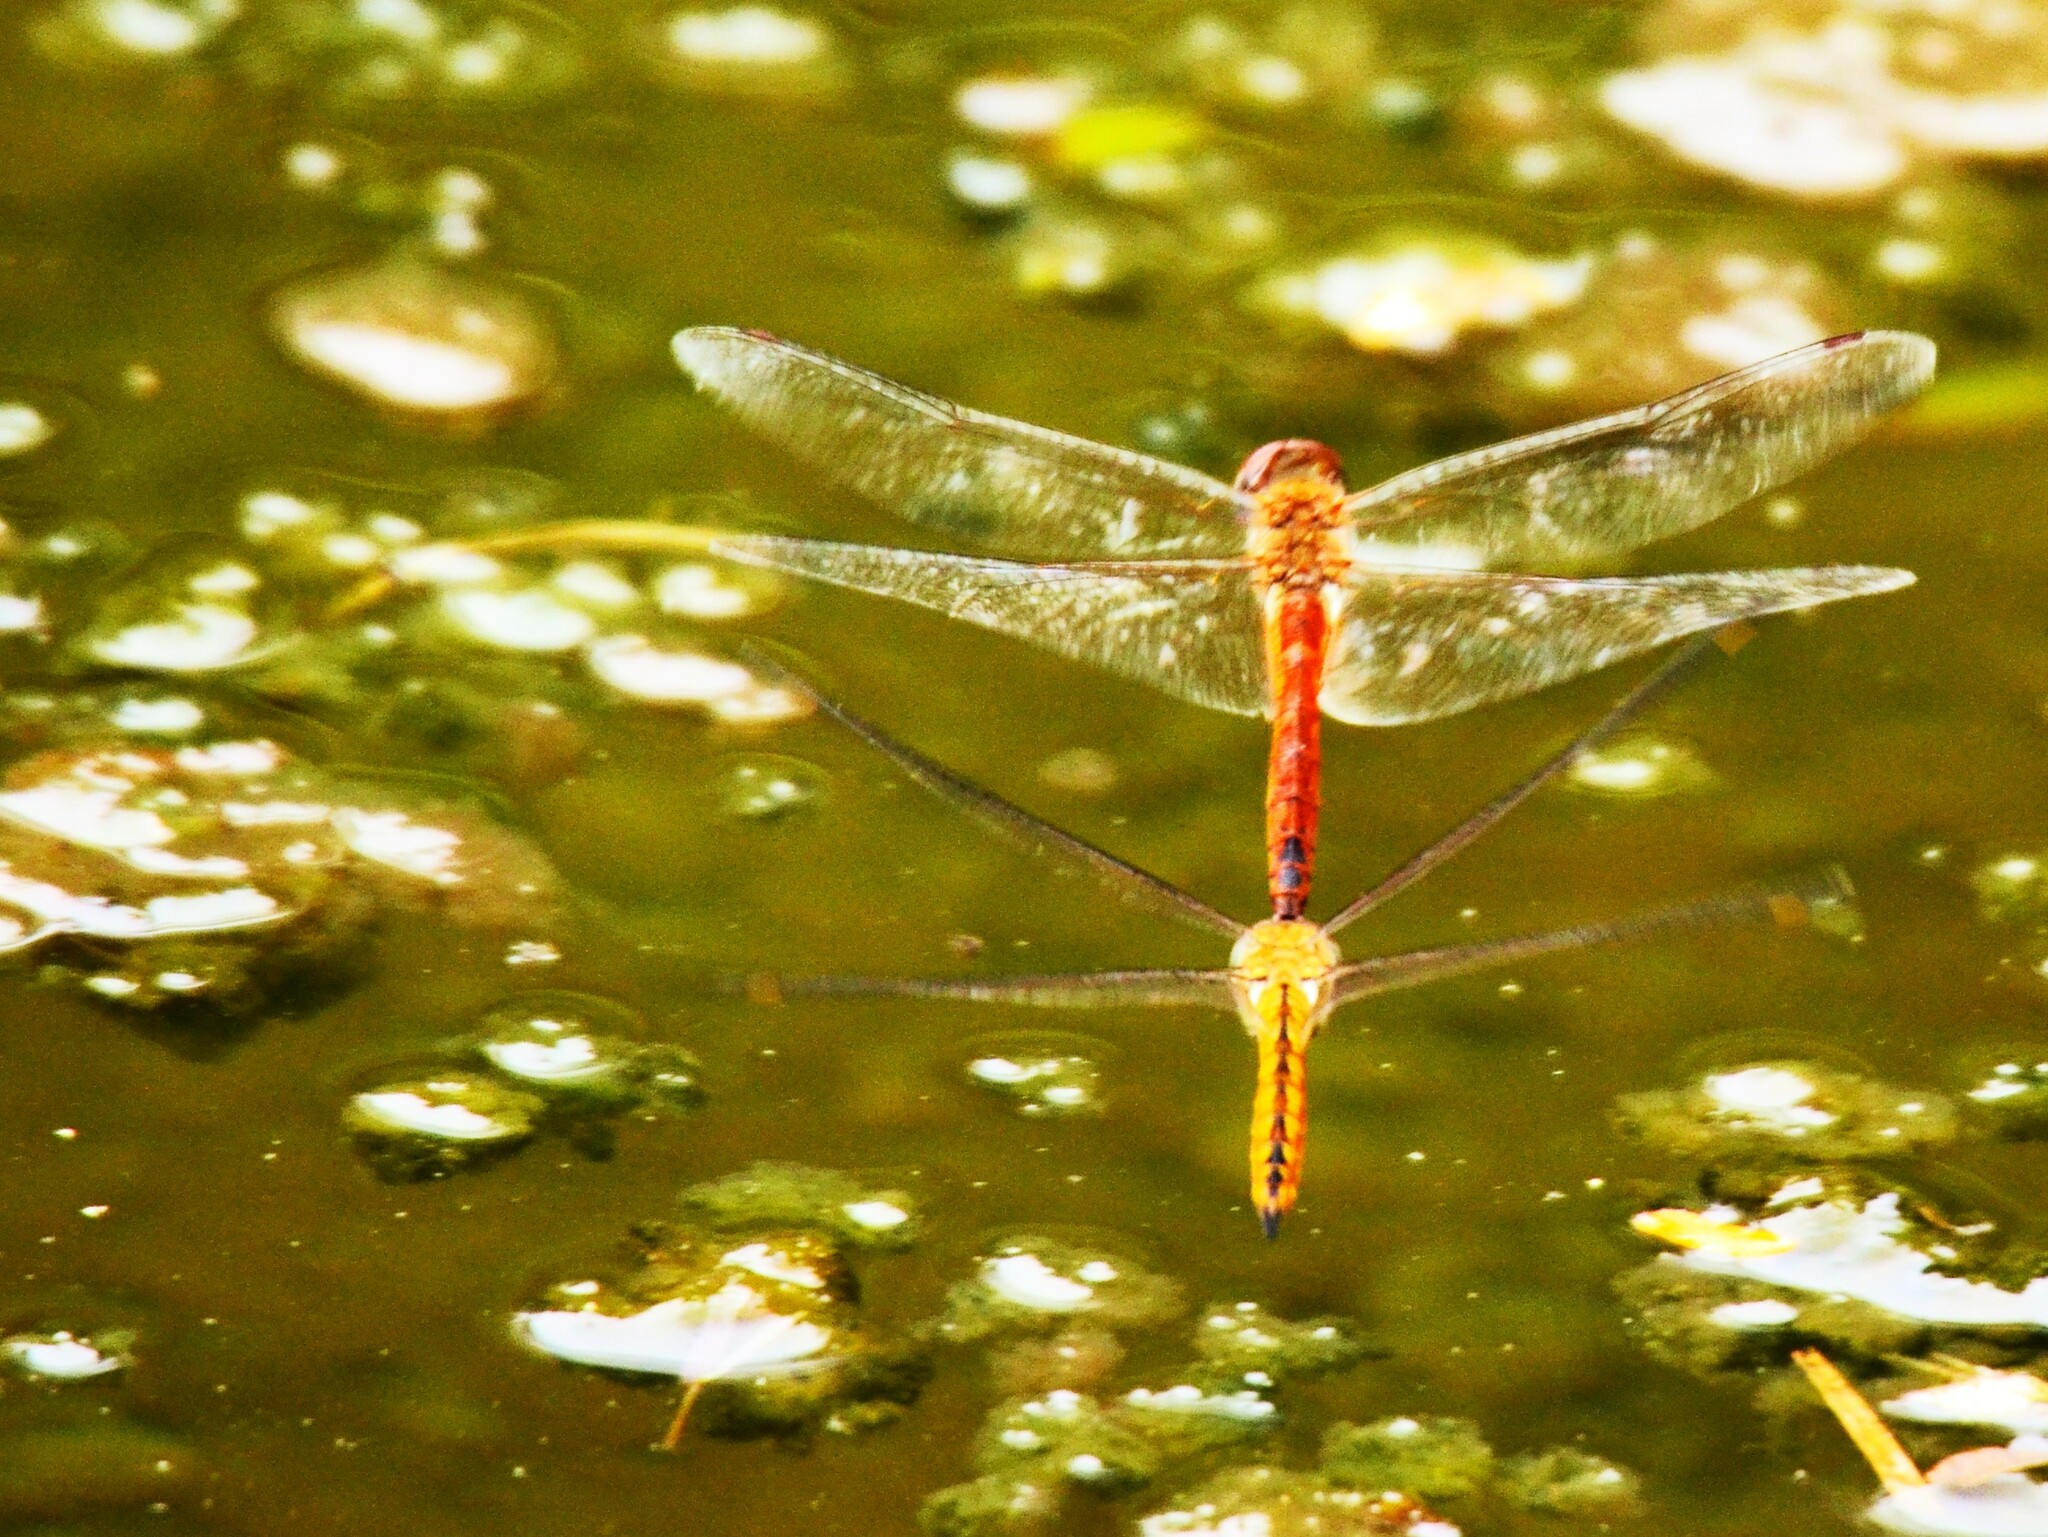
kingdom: Animalia
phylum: Arthropoda
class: Insecta
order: Odonata
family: Libellulidae
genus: Pantala
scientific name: Pantala flavescens
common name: Wandering glider
